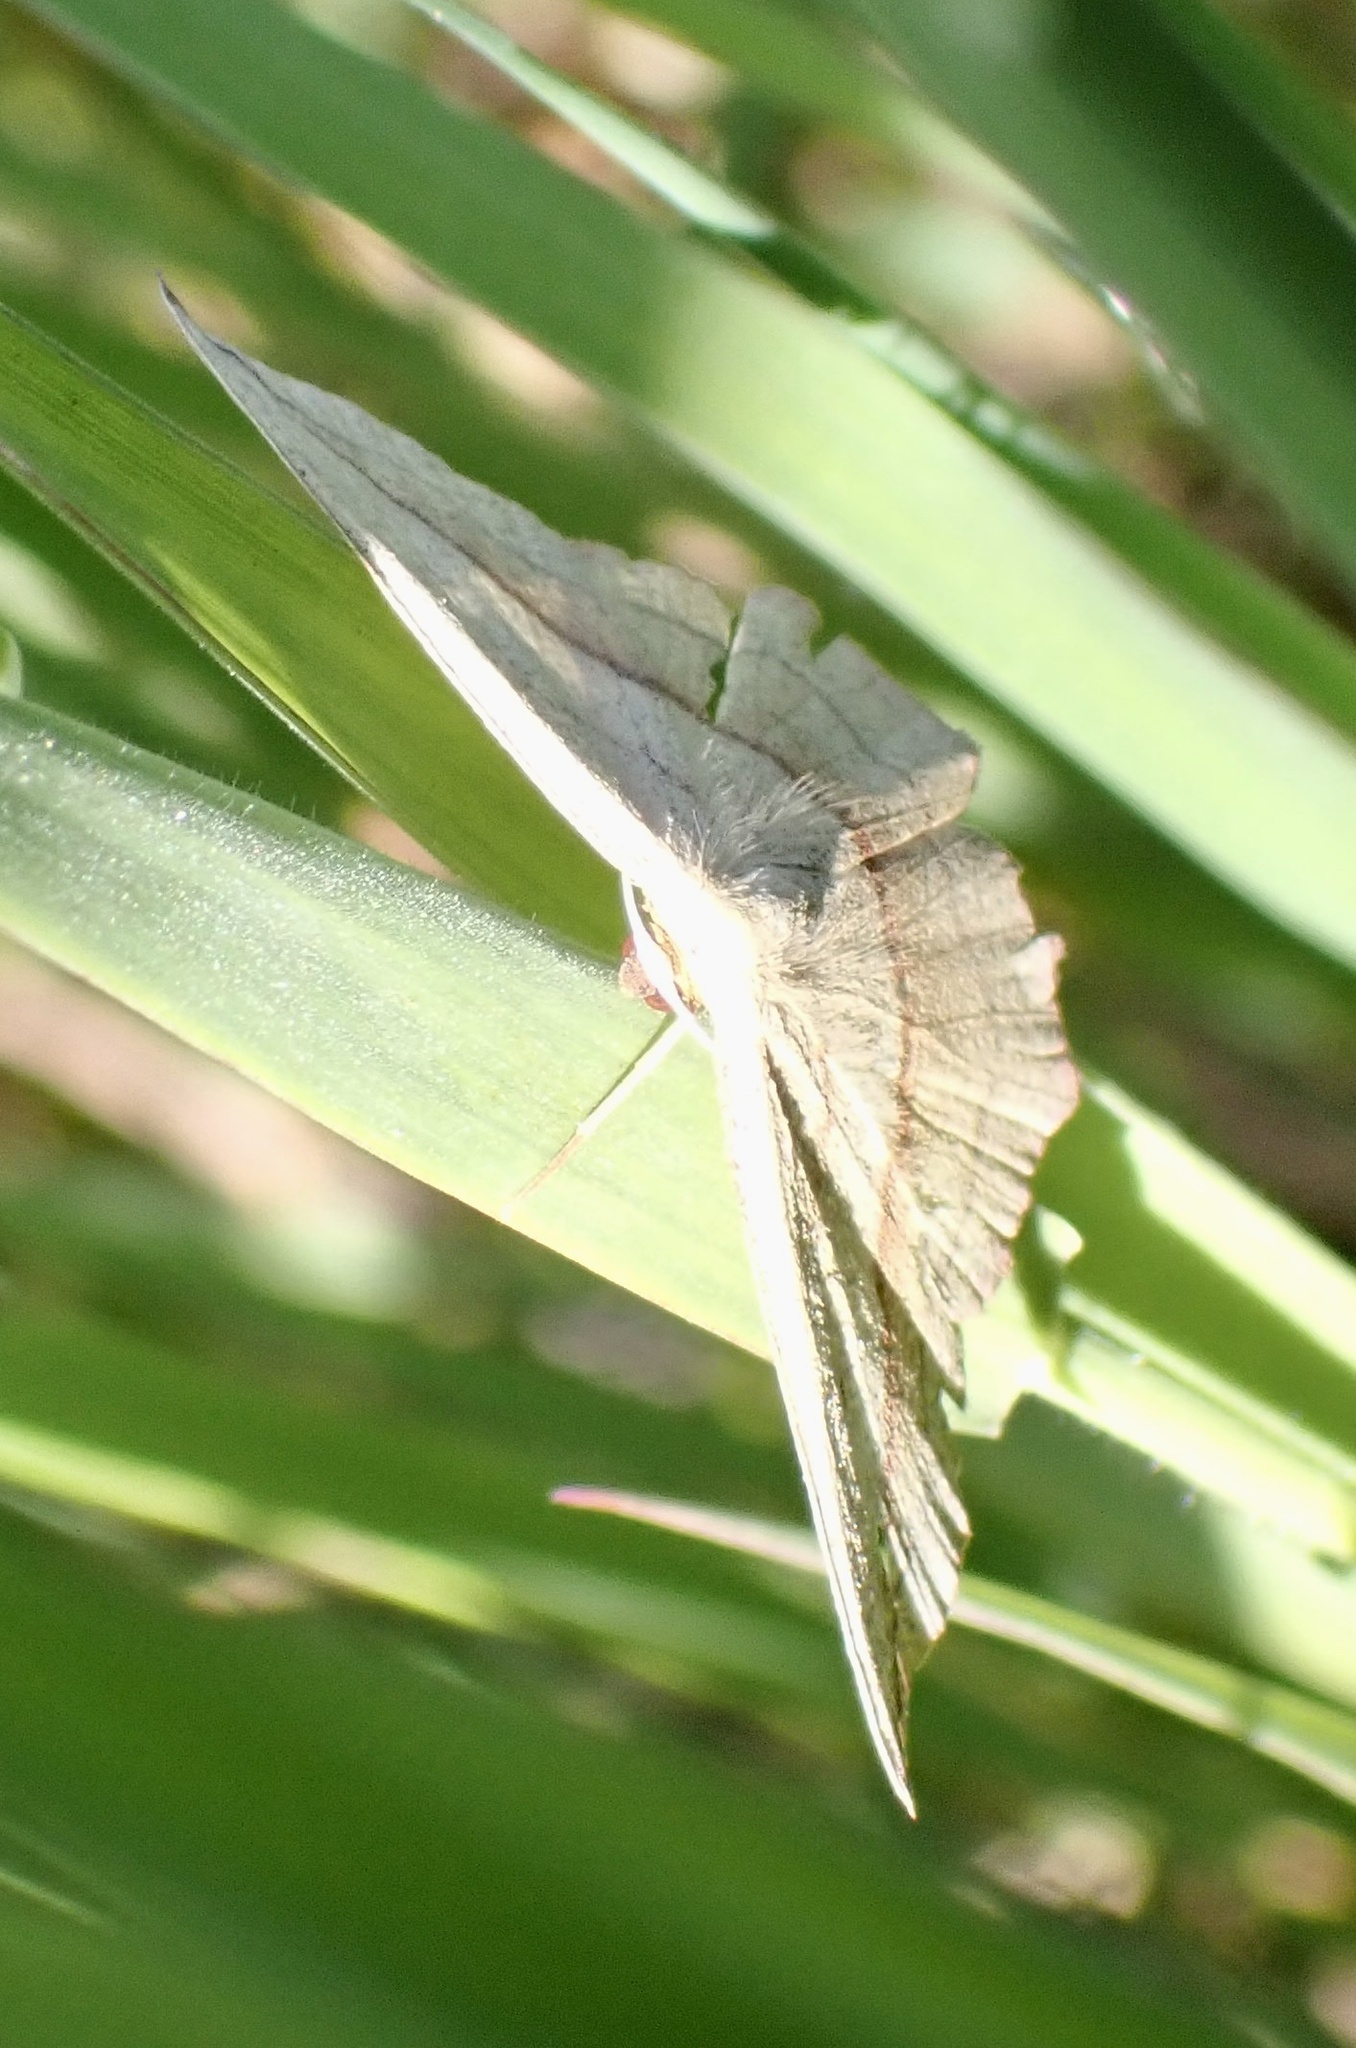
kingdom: Animalia
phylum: Arthropoda
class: Insecta
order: Lepidoptera
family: Geometridae
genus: Timandra
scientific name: Timandra comae
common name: Blood-vein
